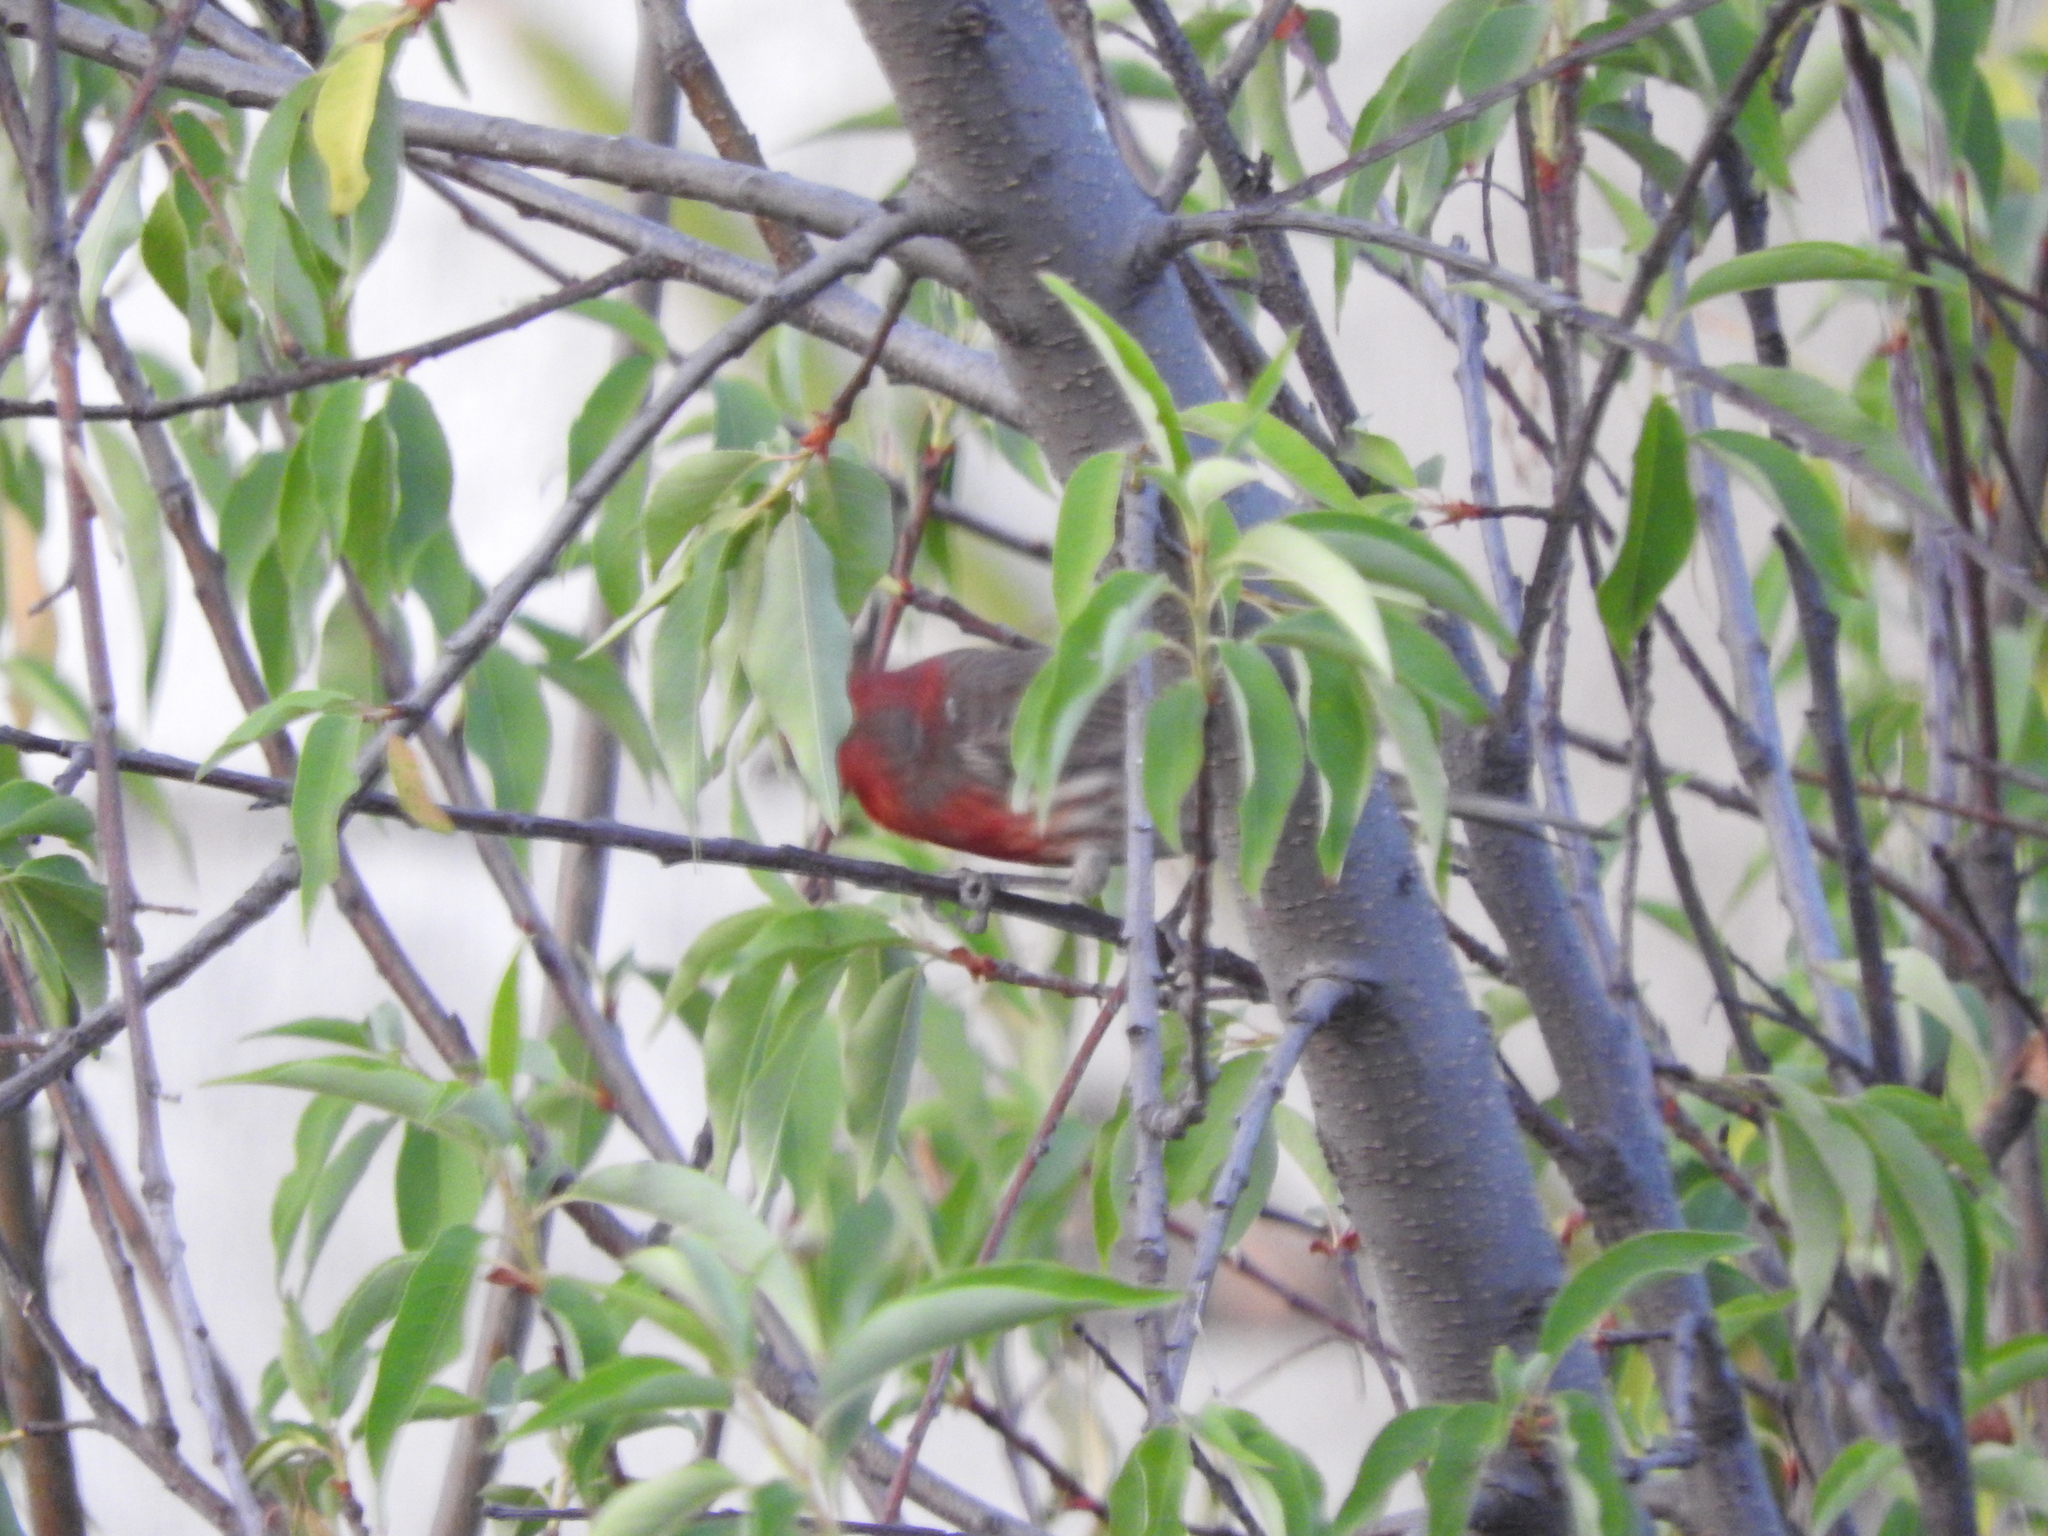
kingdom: Animalia
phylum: Chordata
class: Aves
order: Passeriformes
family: Fringillidae
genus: Haemorhous
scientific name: Haemorhous mexicanus
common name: House finch
